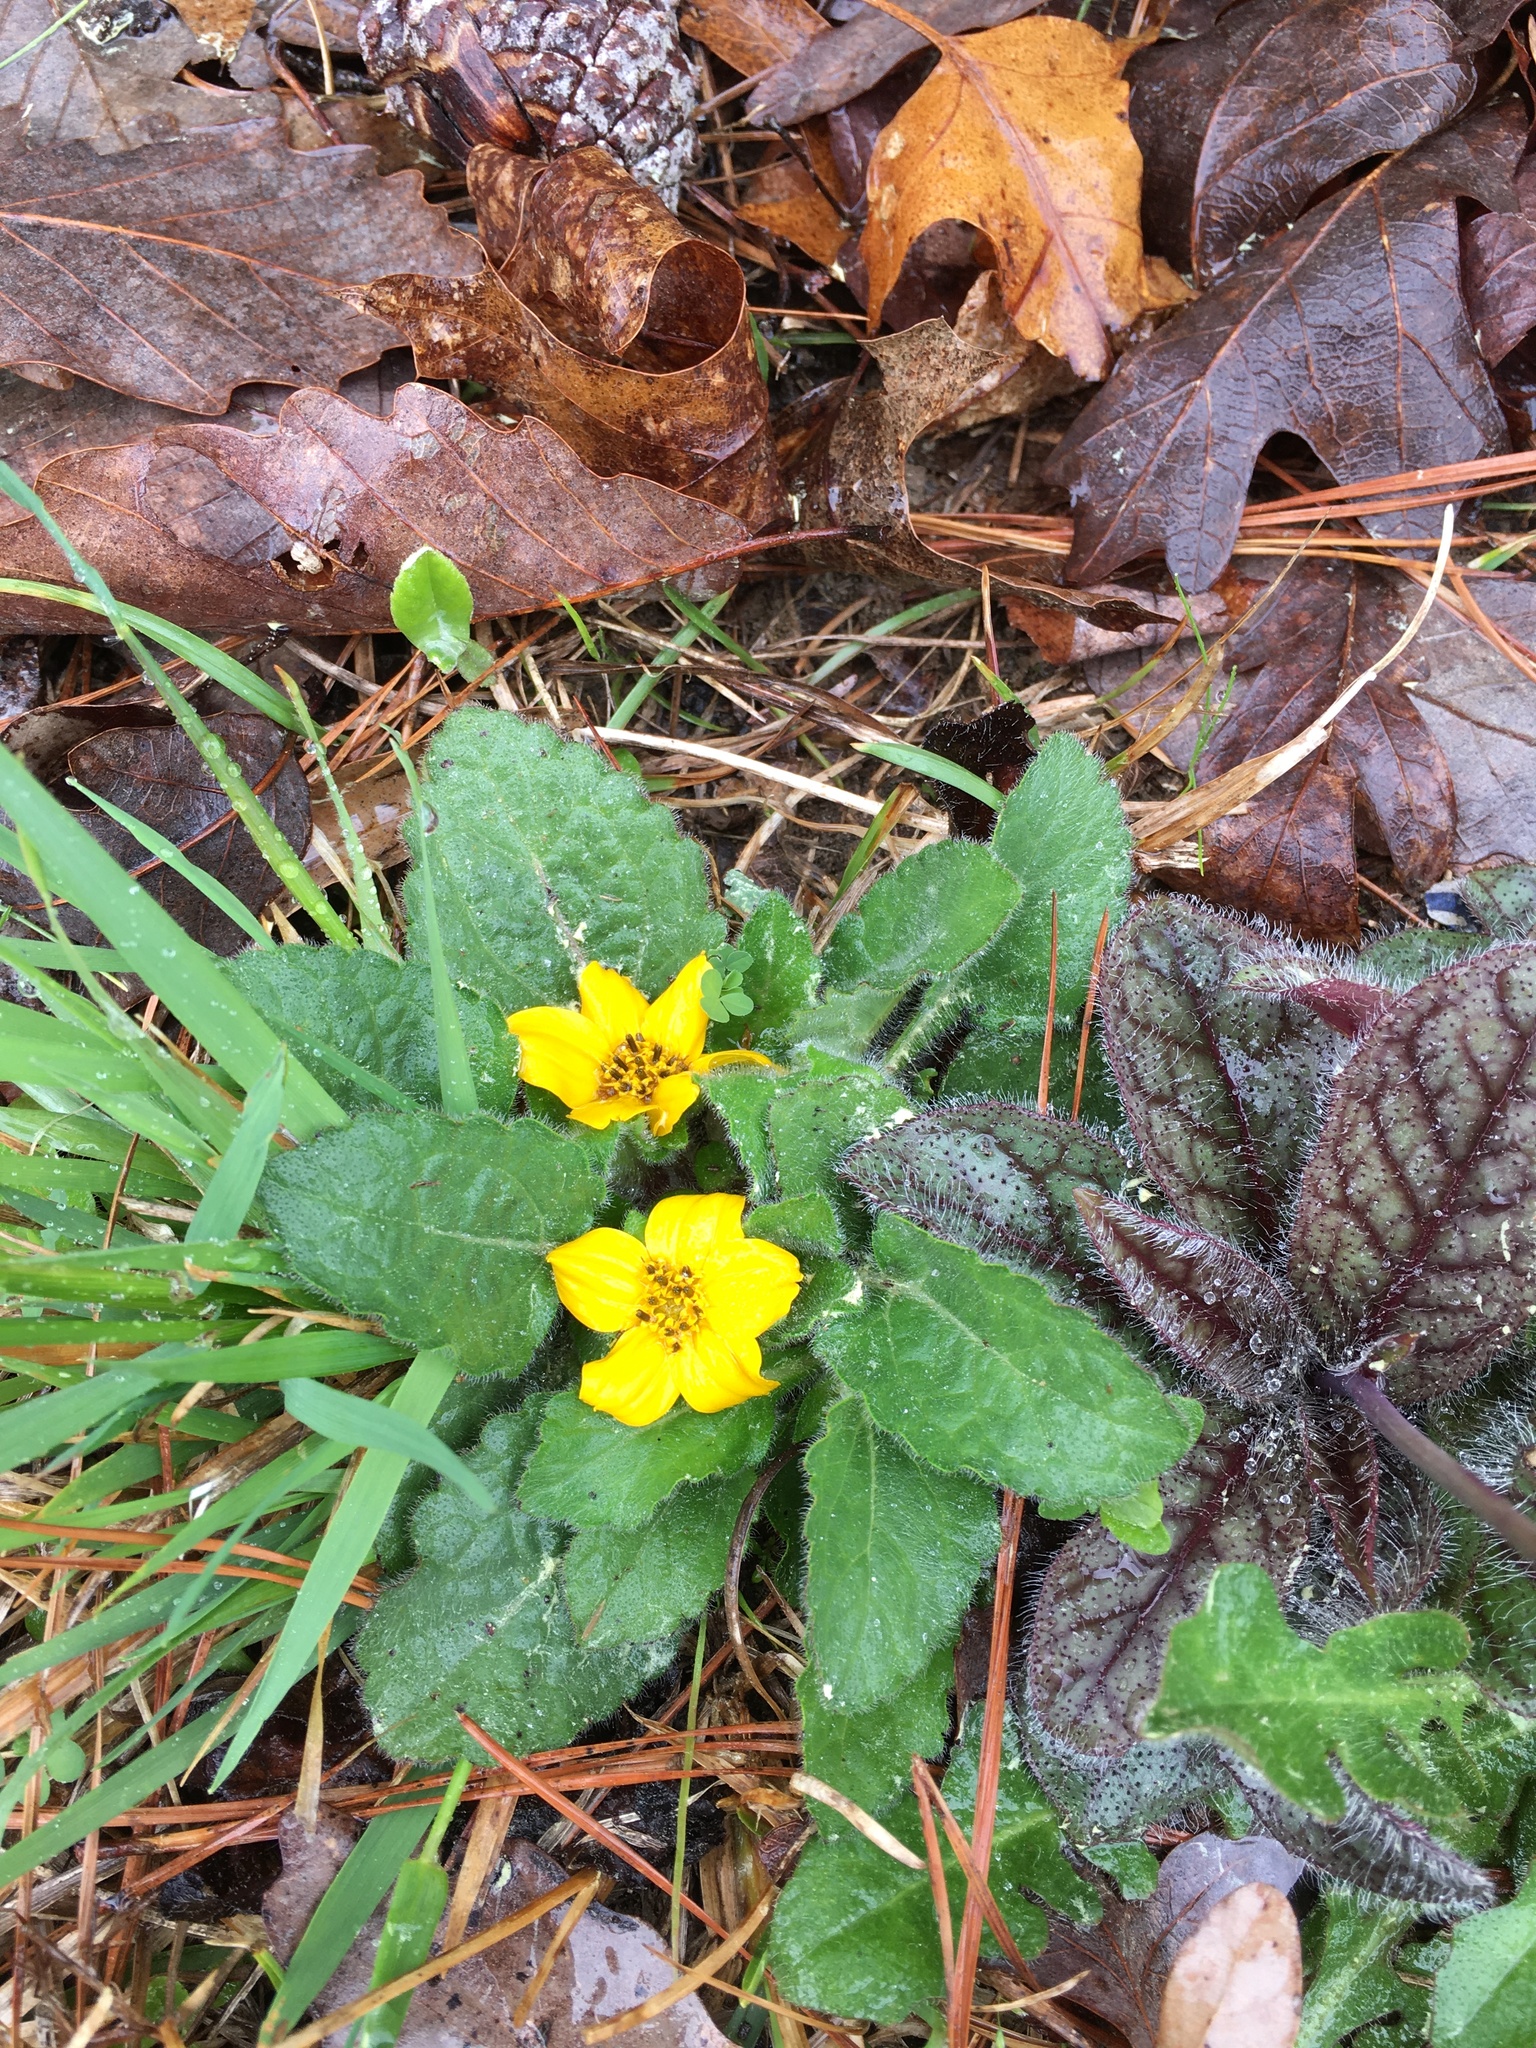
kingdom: Plantae
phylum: Tracheophyta
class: Magnoliopsida
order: Asterales
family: Asteraceae
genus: Chrysogonum
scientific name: Chrysogonum virginianum
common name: Golden-knee
